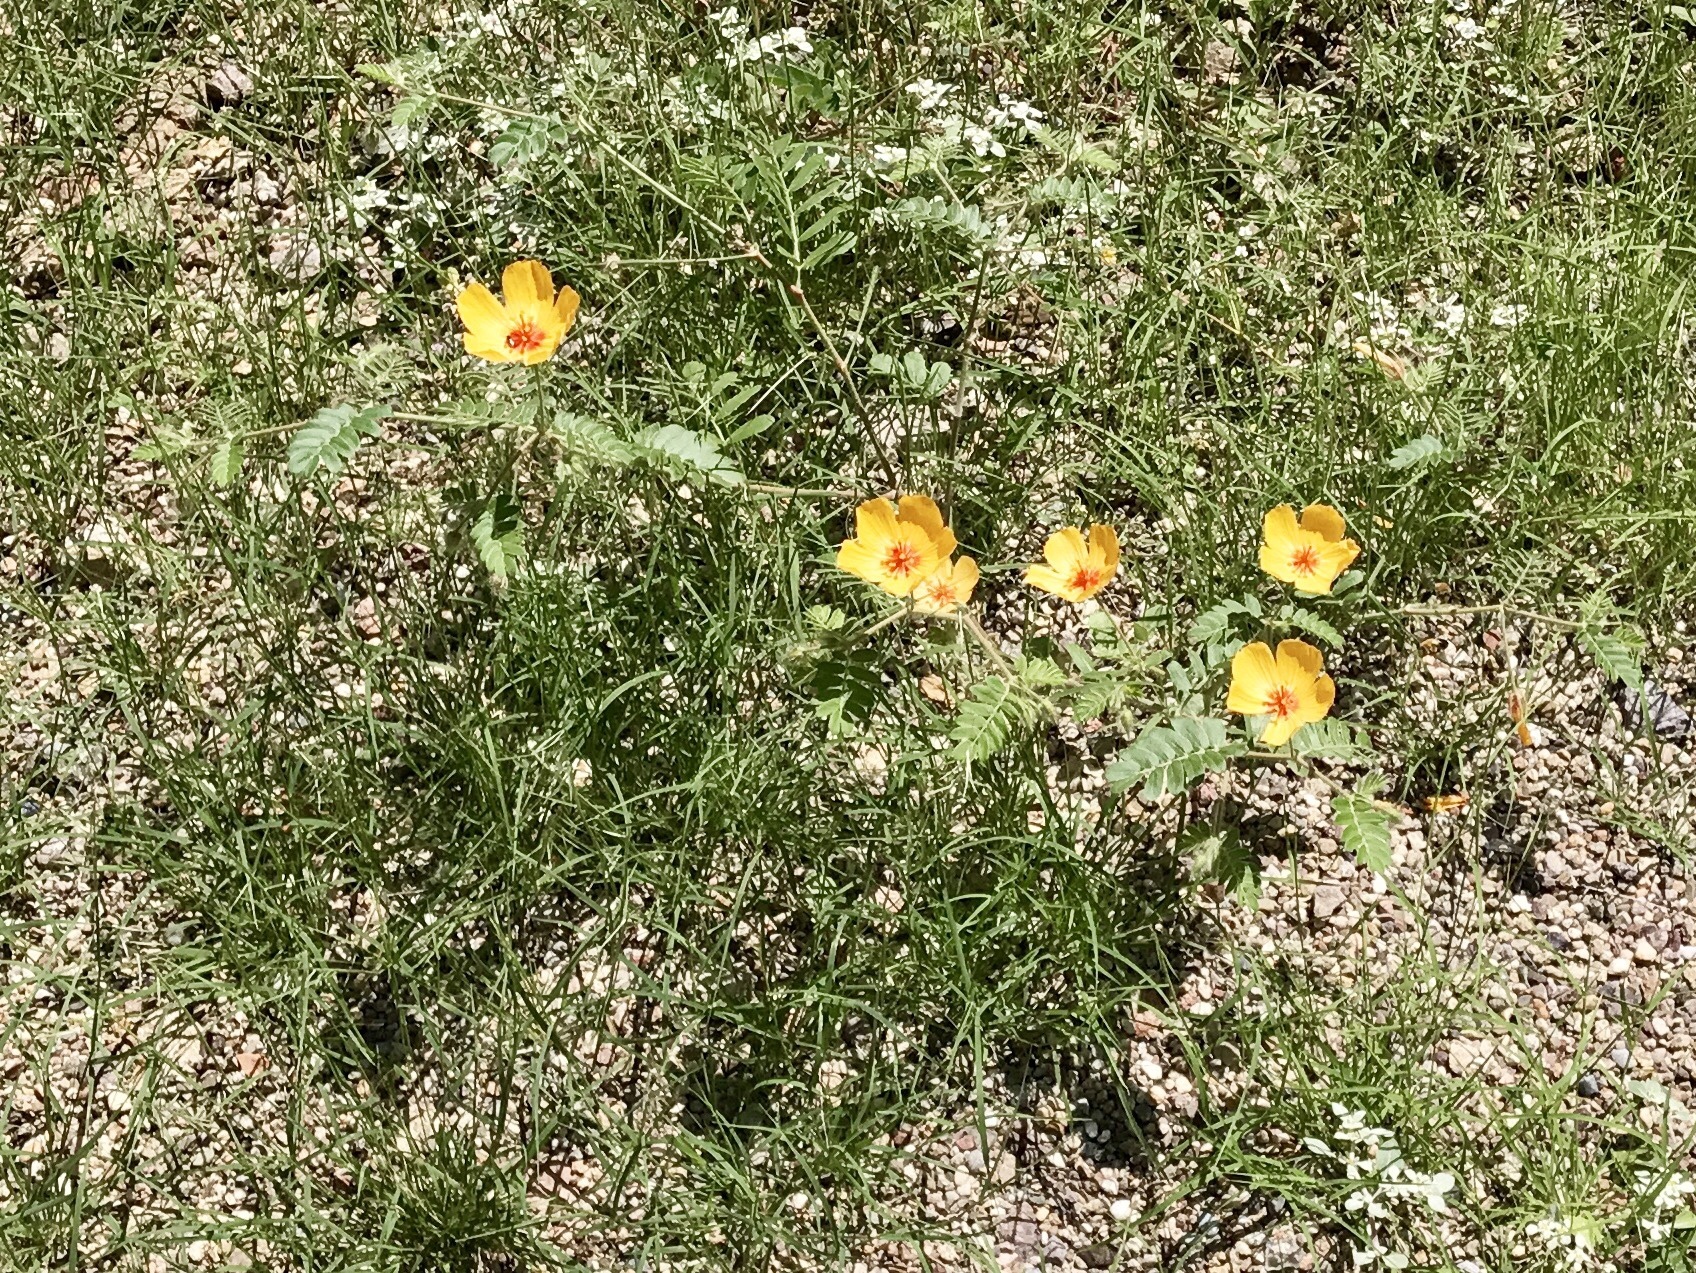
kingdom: Plantae
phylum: Tracheophyta
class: Magnoliopsida
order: Zygophyllales
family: Zygophyllaceae
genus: Kallstroemia
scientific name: Kallstroemia grandiflora
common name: Arizona-poppy
